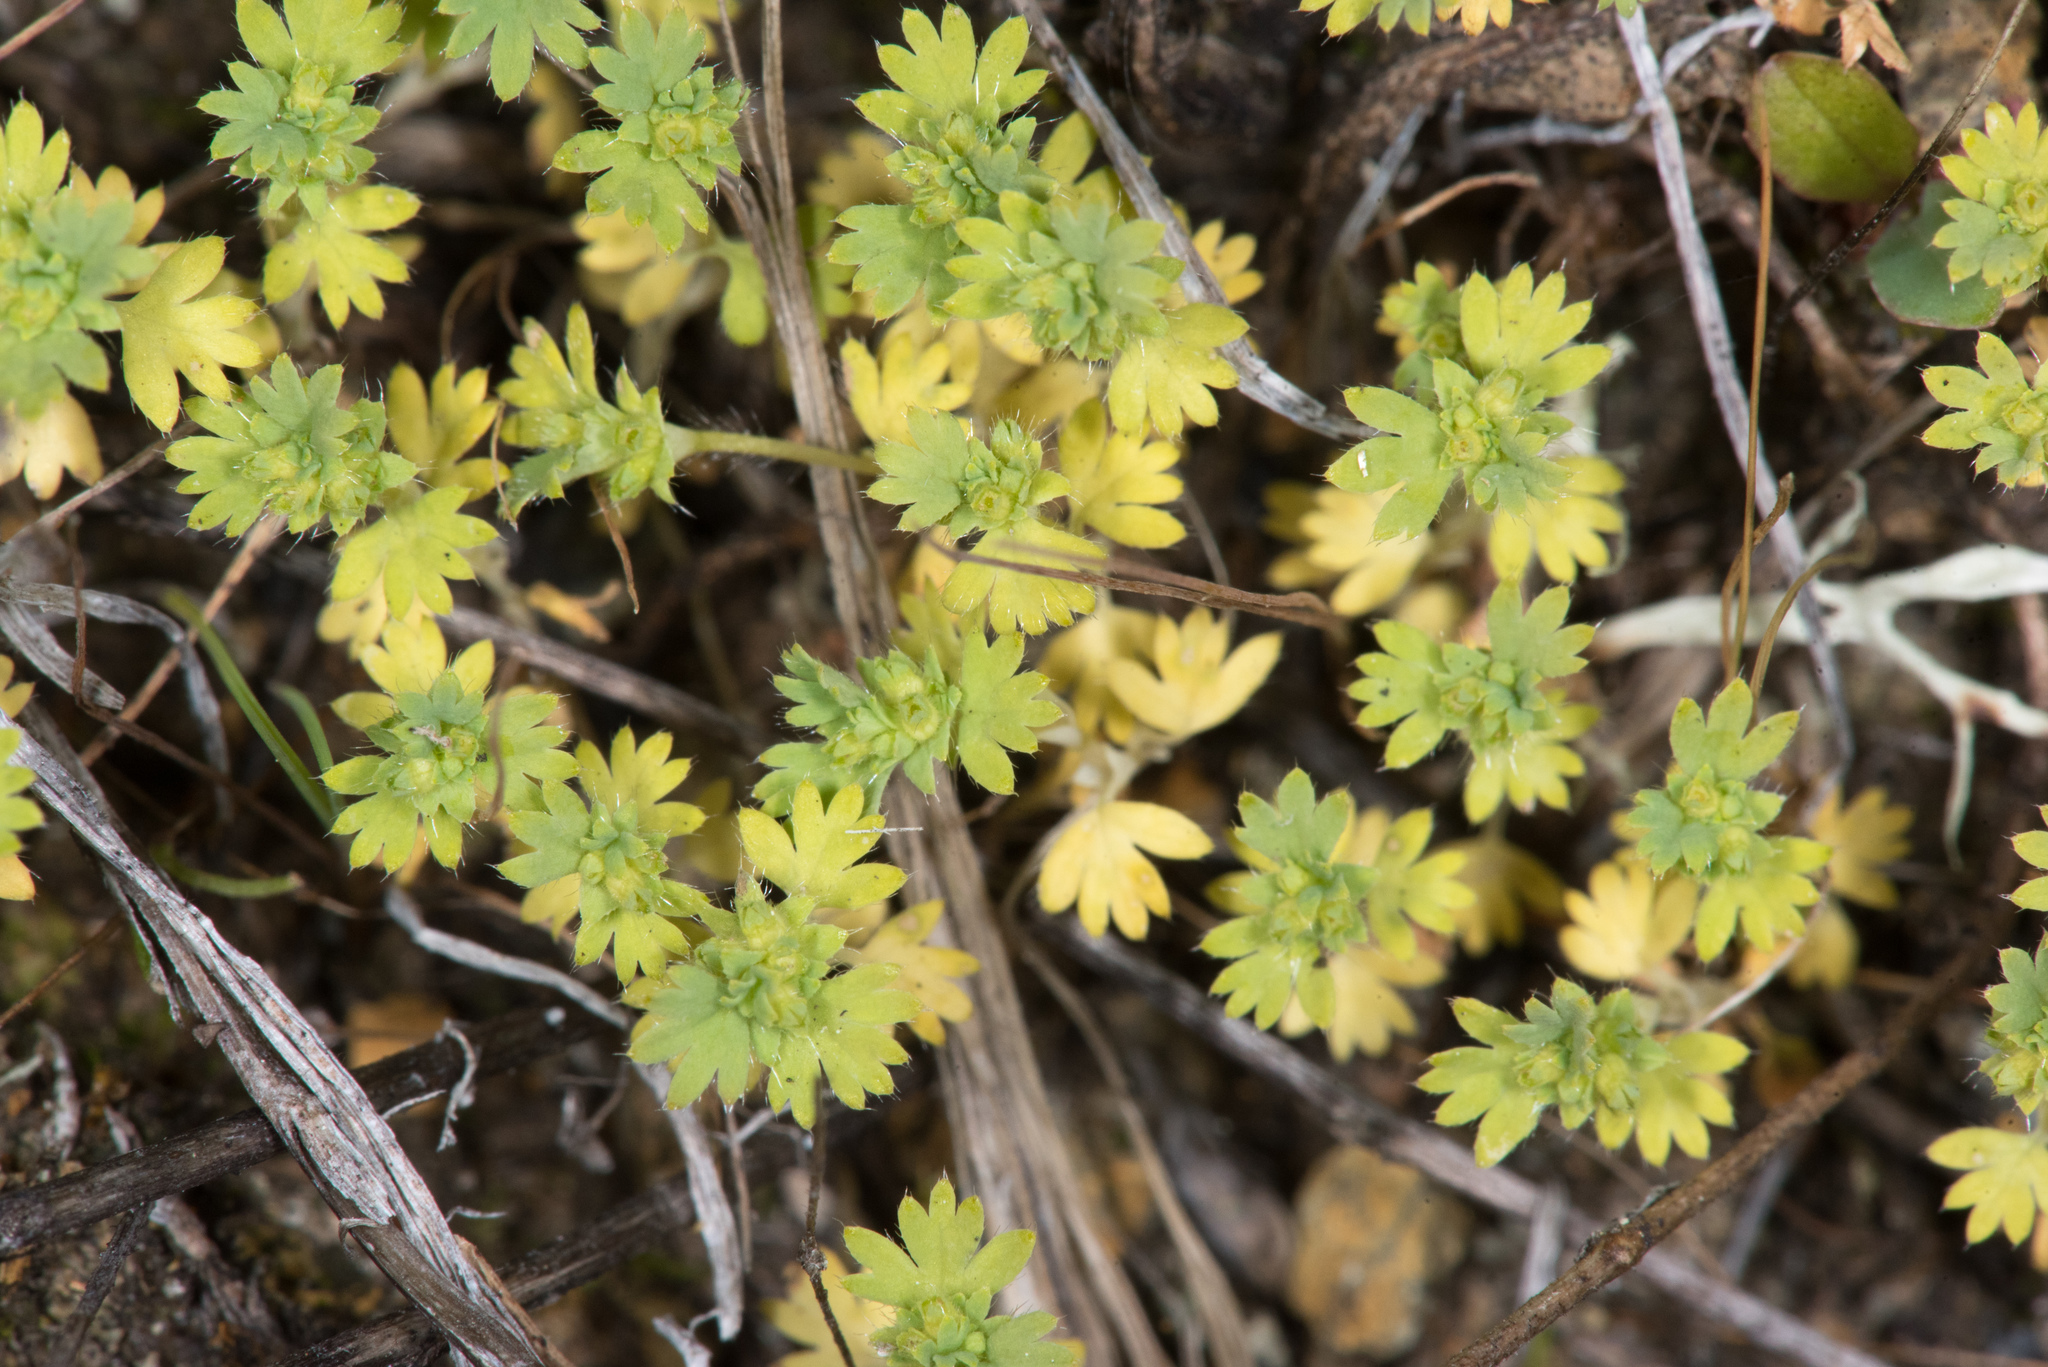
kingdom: Plantae
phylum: Tracheophyta
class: Magnoliopsida
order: Rosales
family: Rosaceae
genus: Aphanes
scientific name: Aphanes arvensis
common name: Parsley-piert
